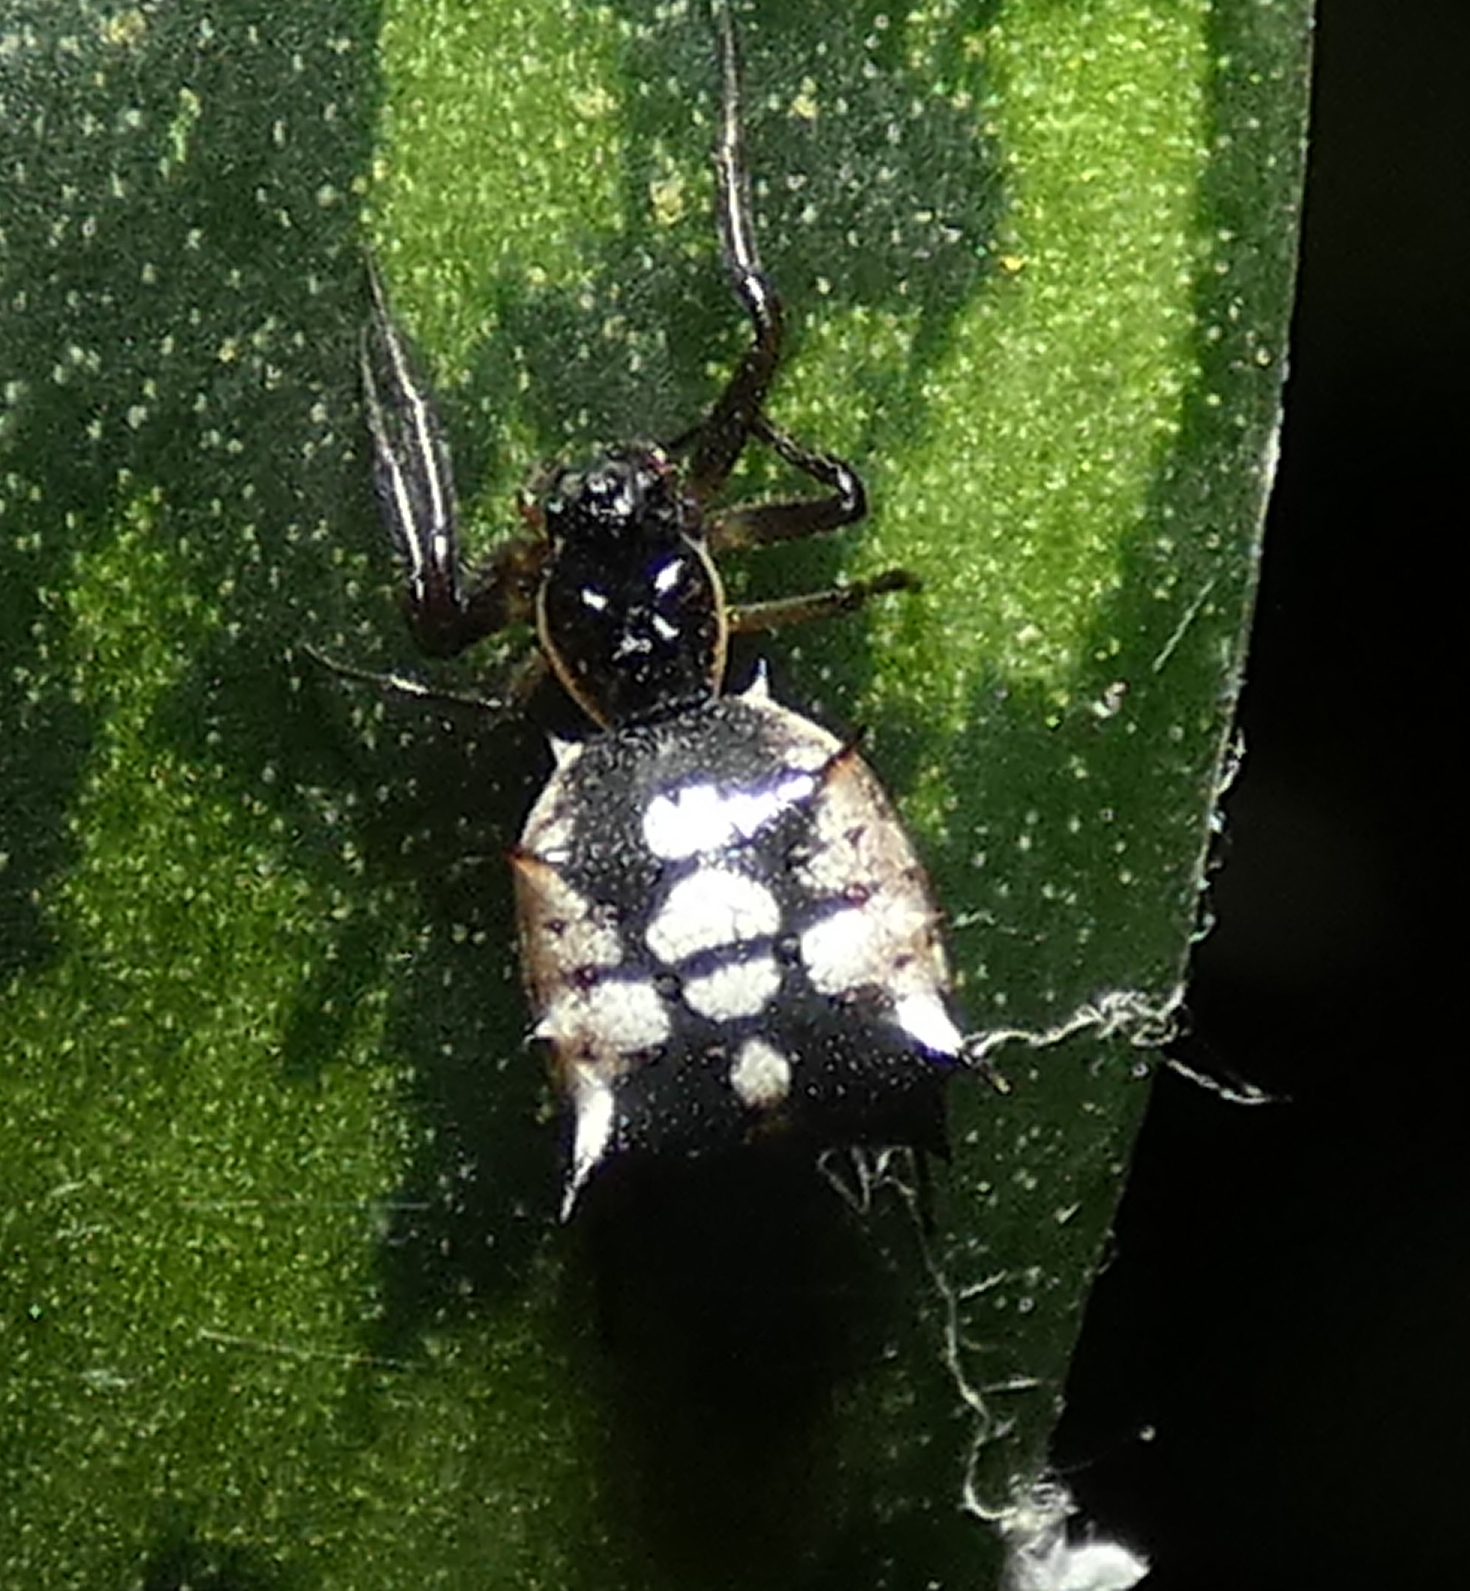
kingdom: Animalia
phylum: Arthropoda
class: Arachnida
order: Araneae
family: Araneidae
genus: Micrathena
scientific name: Micrathena picta
